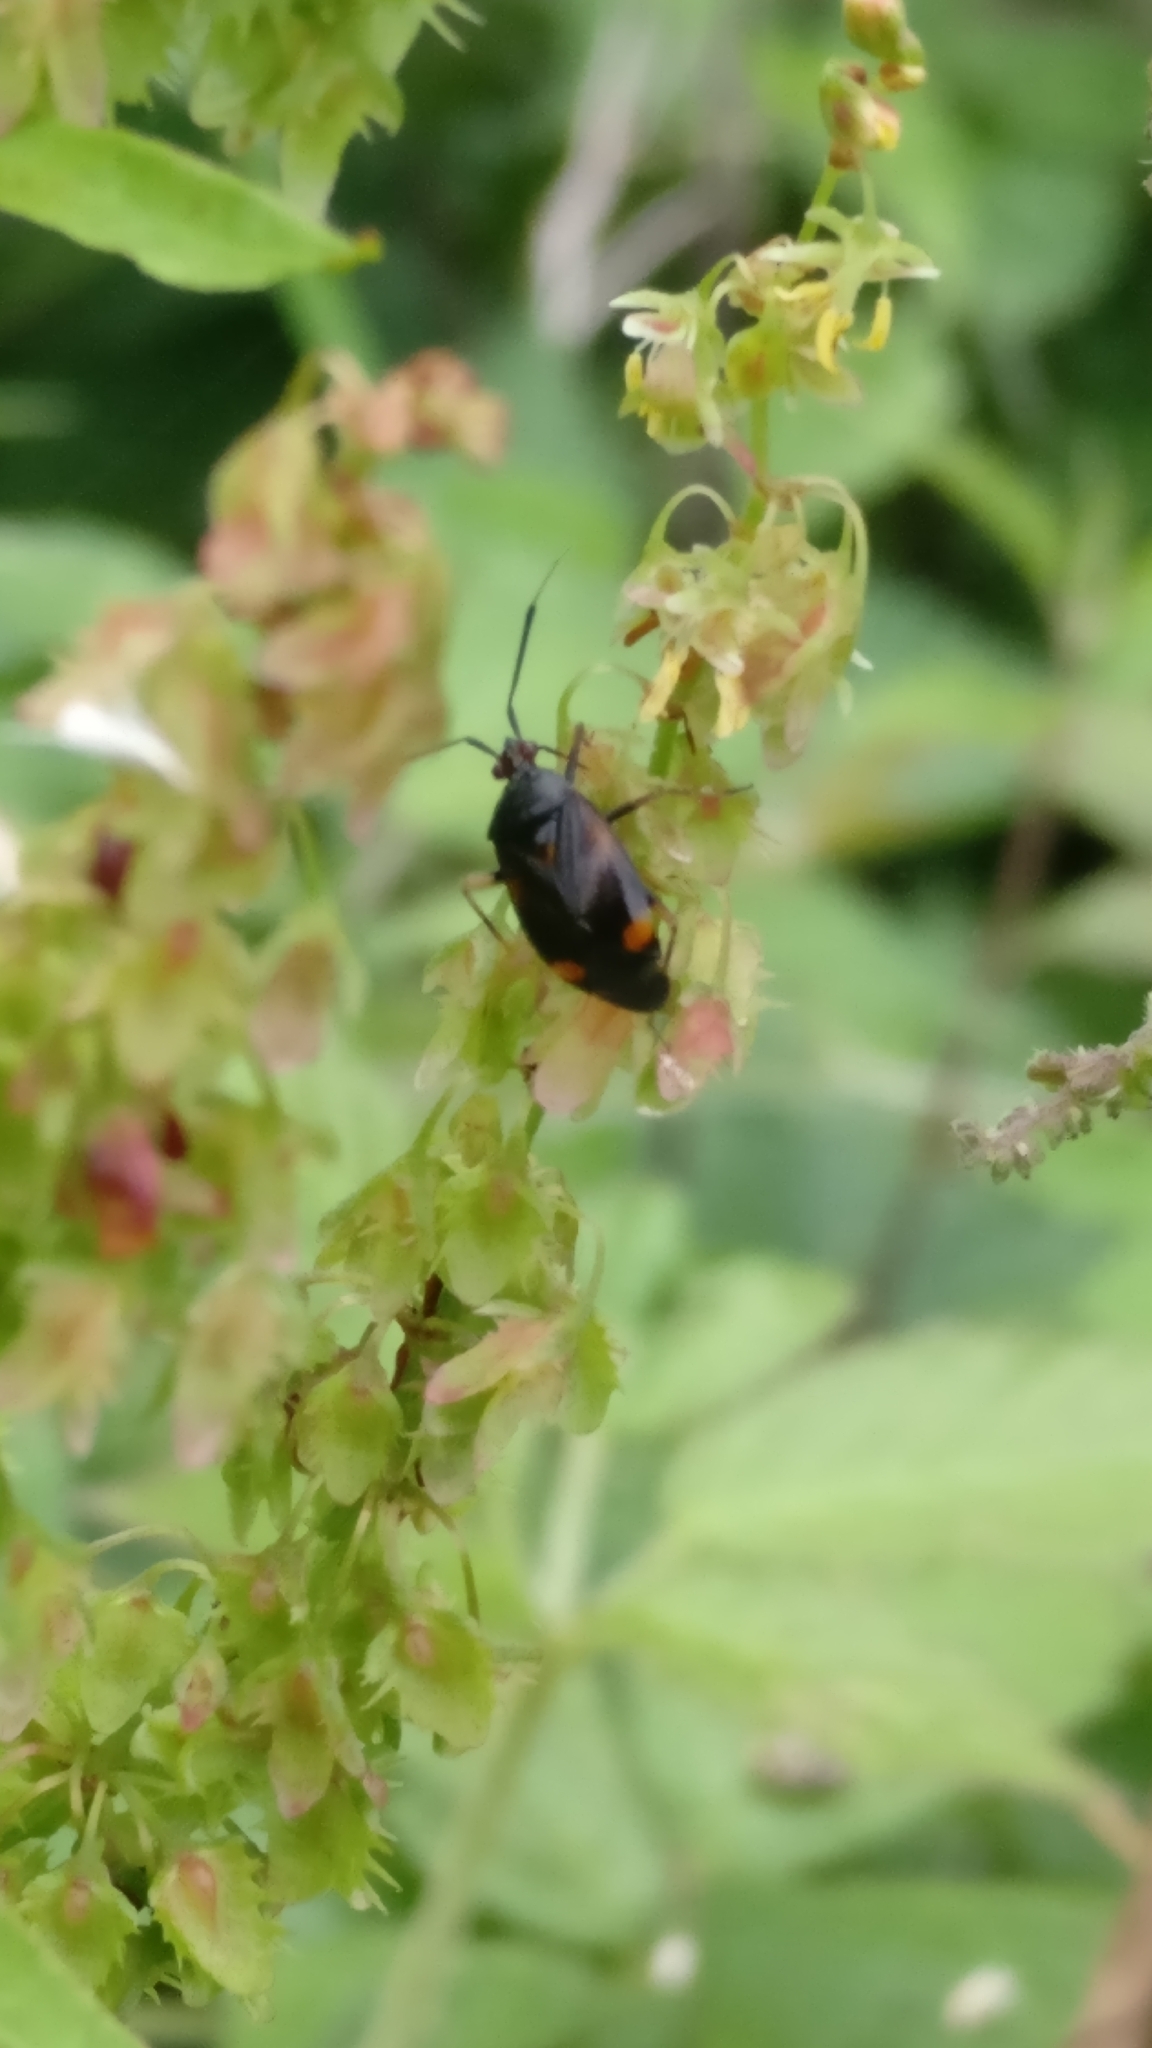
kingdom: Animalia
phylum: Arthropoda
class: Insecta
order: Hemiptera
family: Miridae
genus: Deraeocoris
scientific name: Deraeocoris ruber
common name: Plant bug
